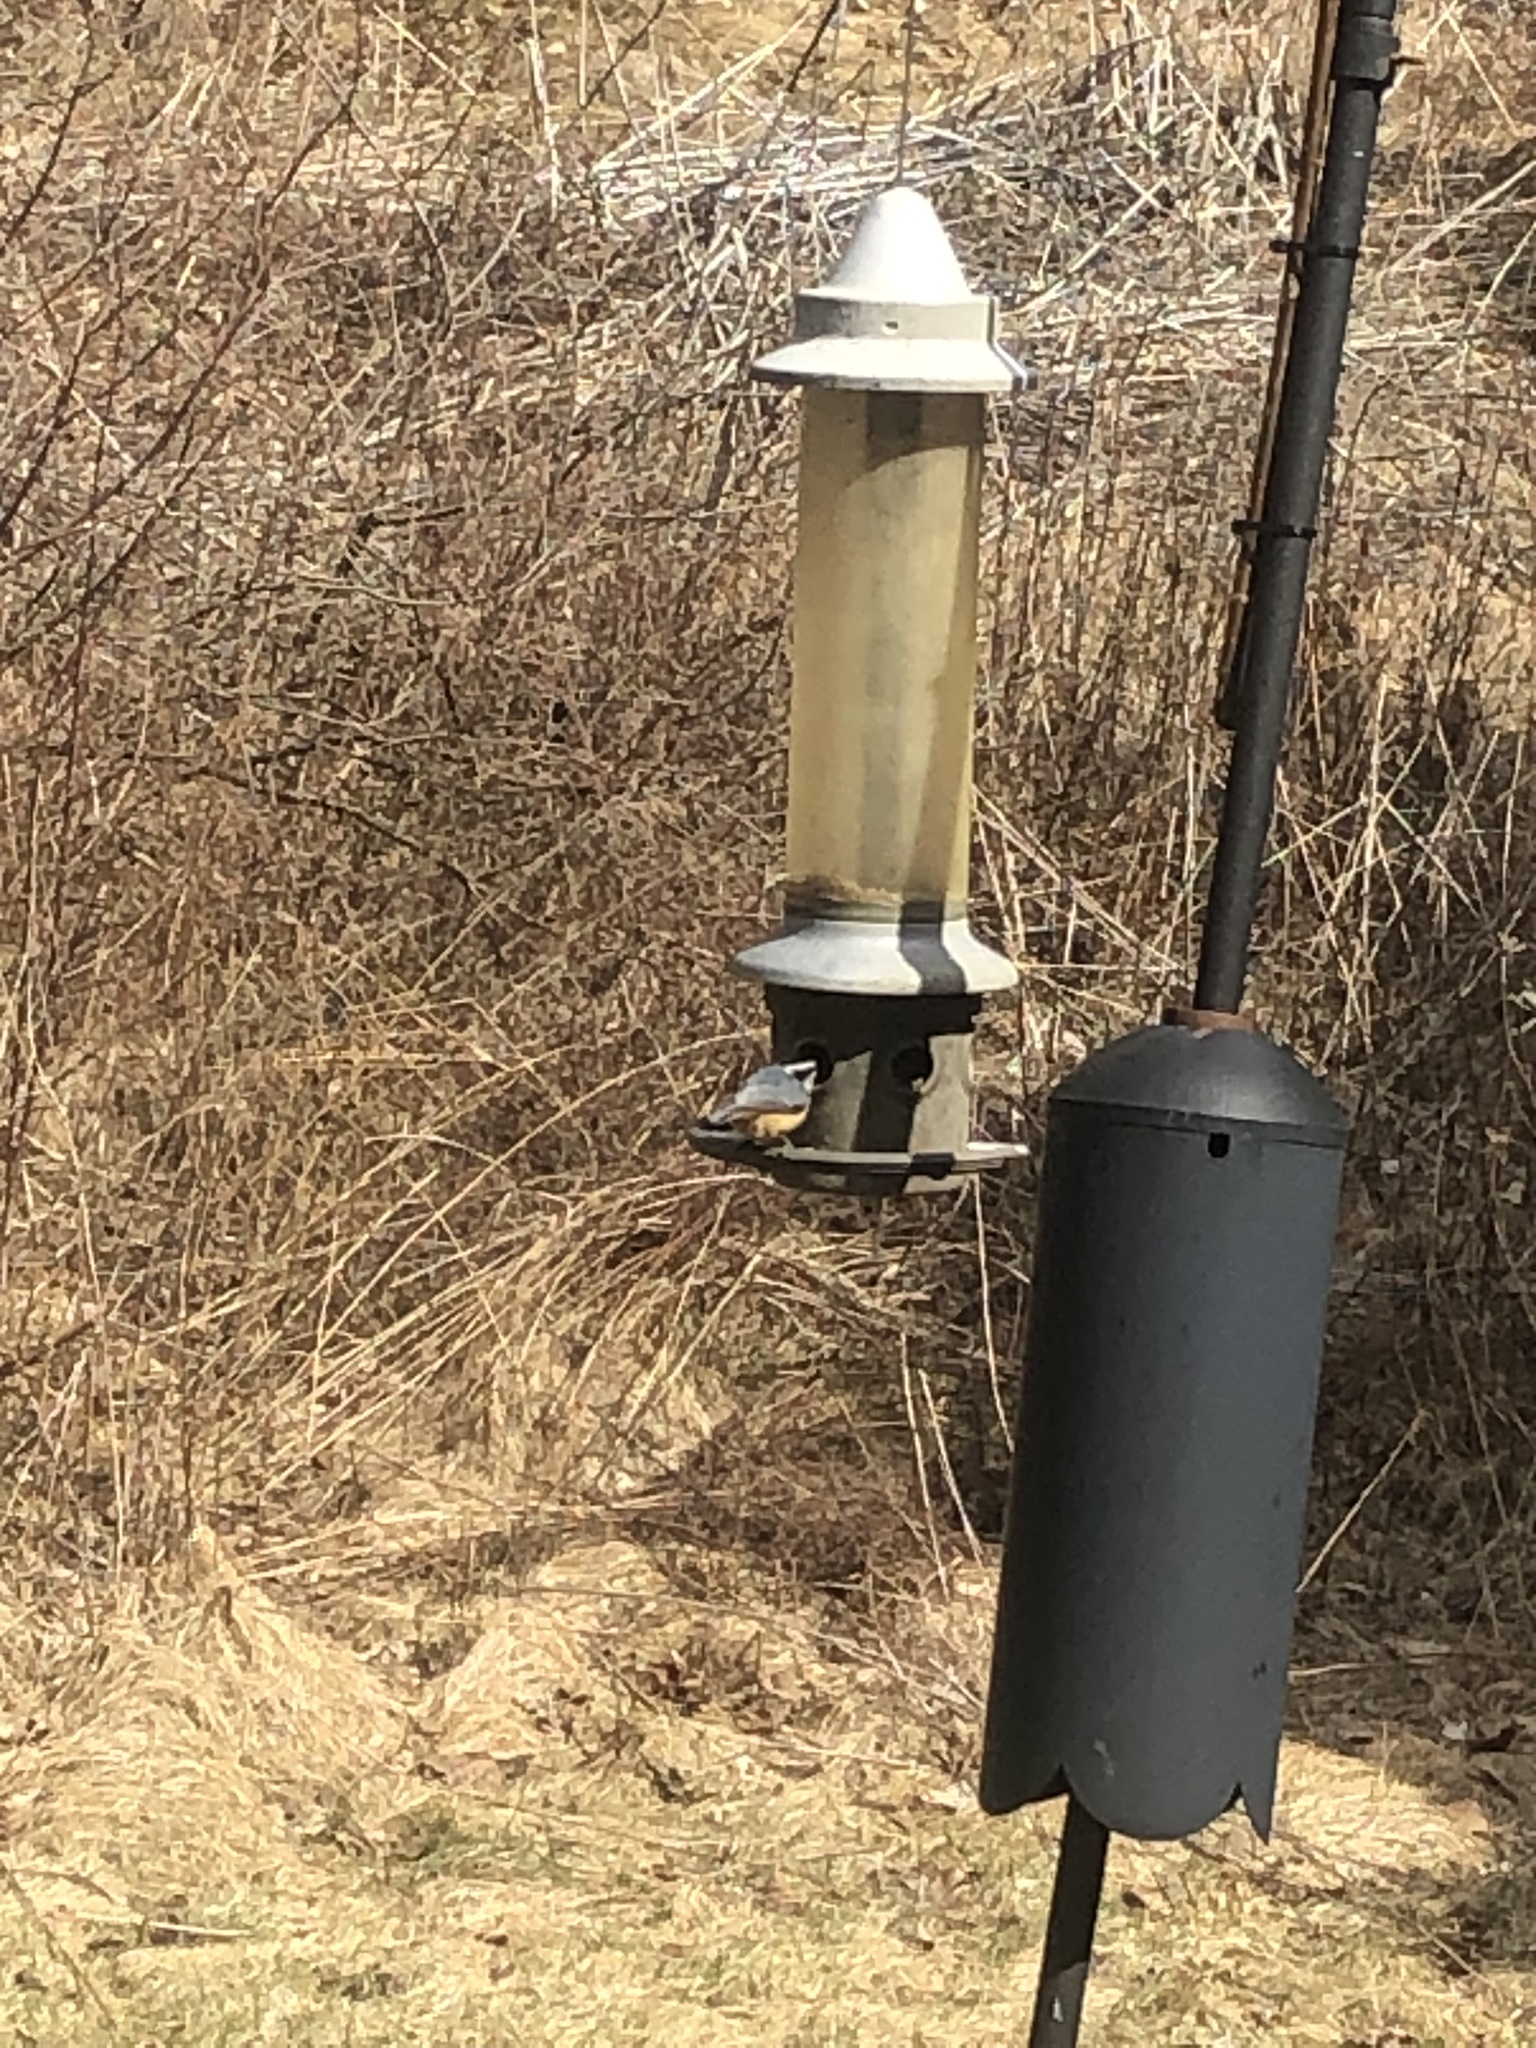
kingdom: Animalia
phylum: Chordata
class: Aves
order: Passeriformes
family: Sittidae
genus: Sitta
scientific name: Sitta canadensis
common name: Red-breasted nuthatch
